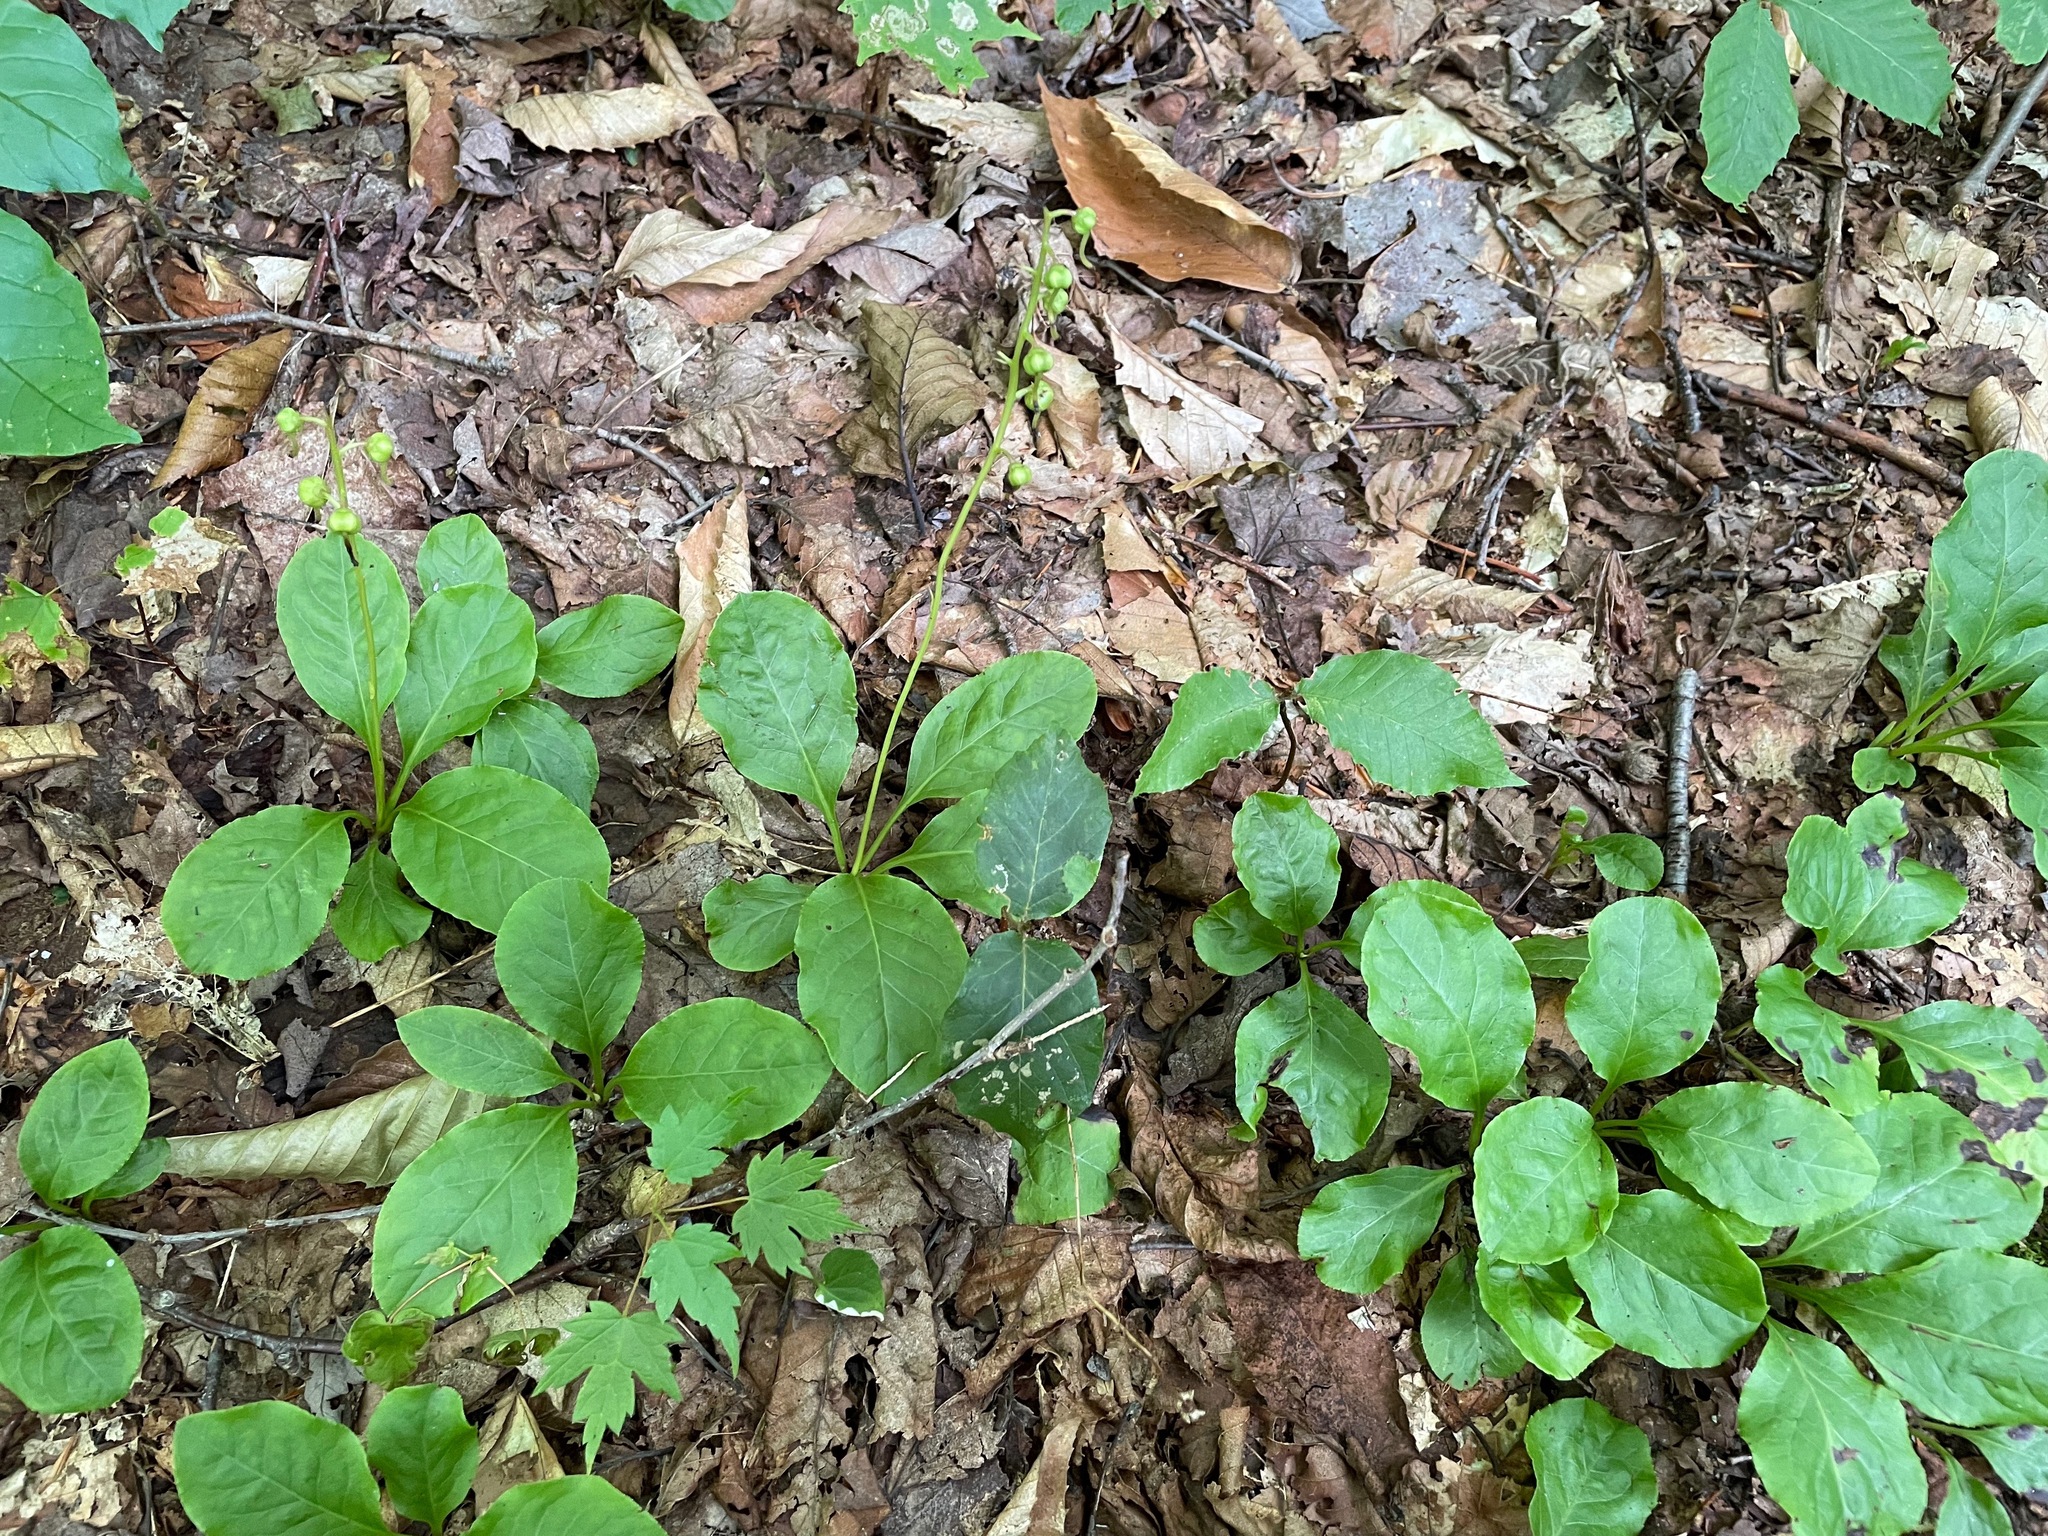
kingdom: Plantae
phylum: Tracheophyta
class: Magnoliopsida
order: Ericales
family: Ericaceae
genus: Pyrola
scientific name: Pyrola elliptica
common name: Shinleaf
